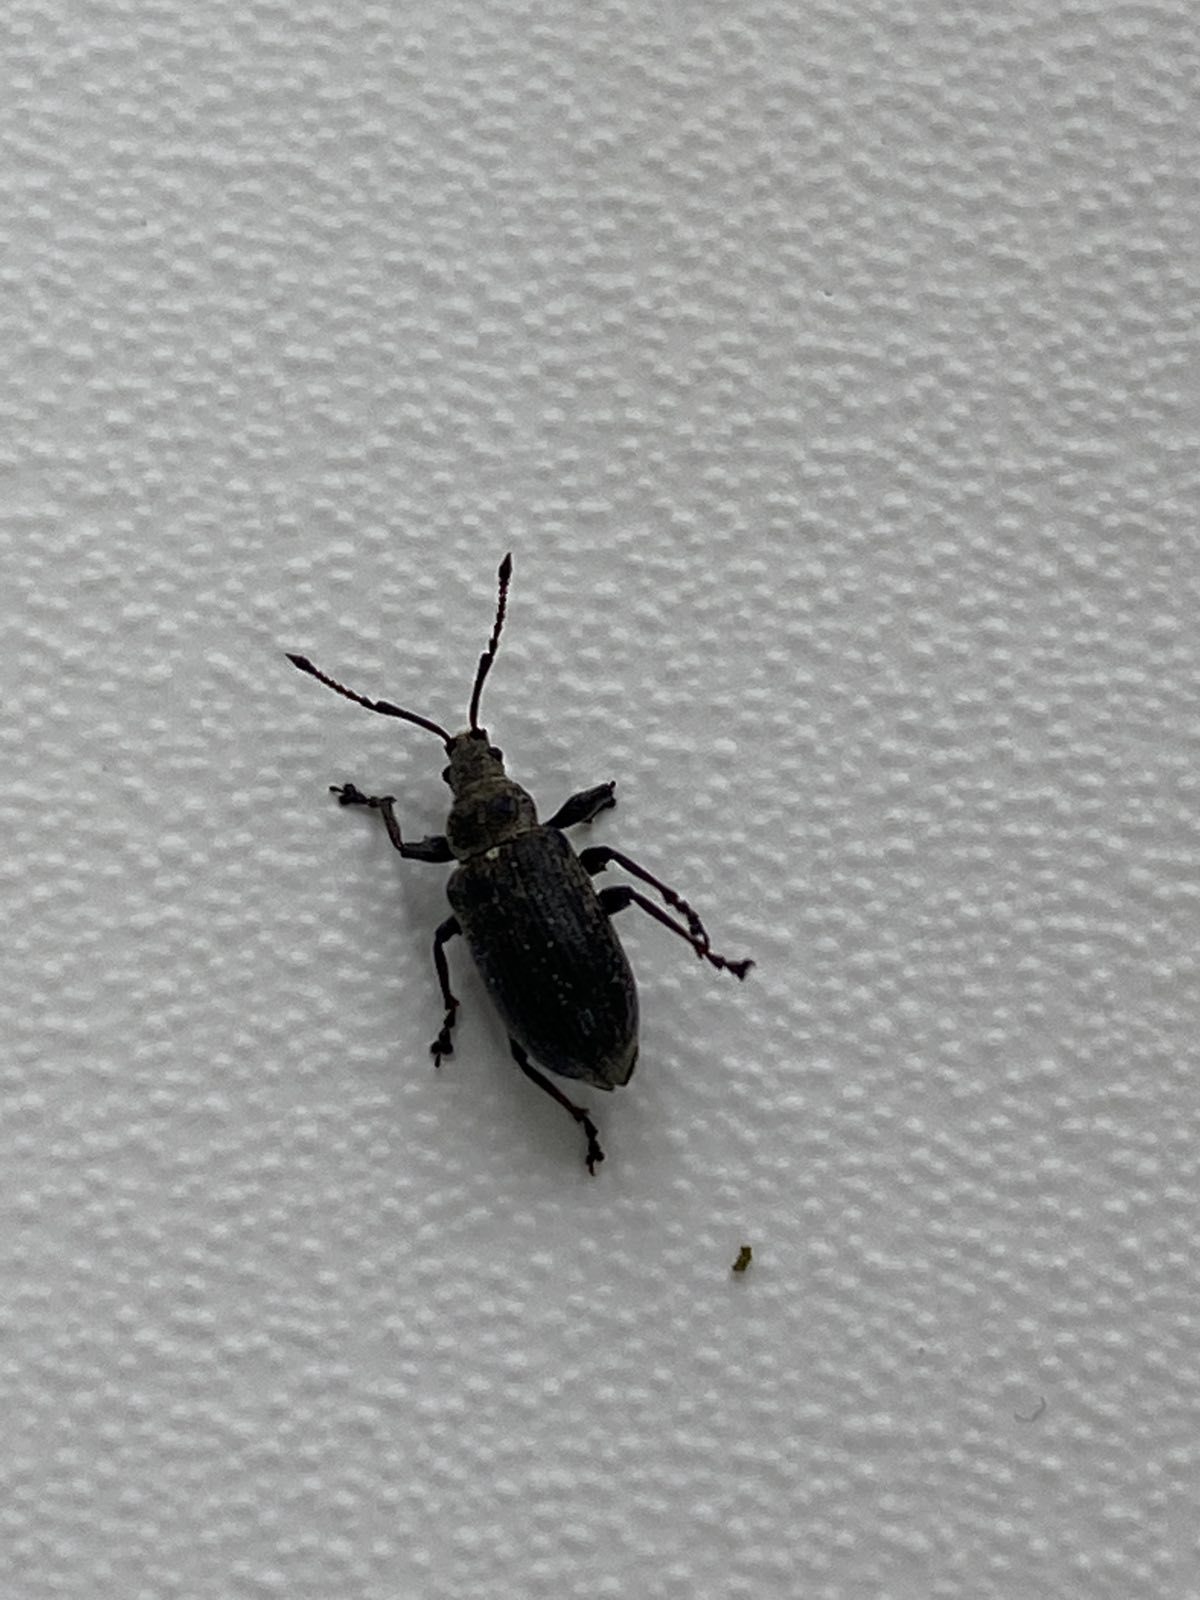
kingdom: Animalia
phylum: Arthropoda
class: Insecta
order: Coleoptera
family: Curculionidae
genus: Phyllobius
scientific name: Phyllobius pyri
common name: Common leaf weevil
